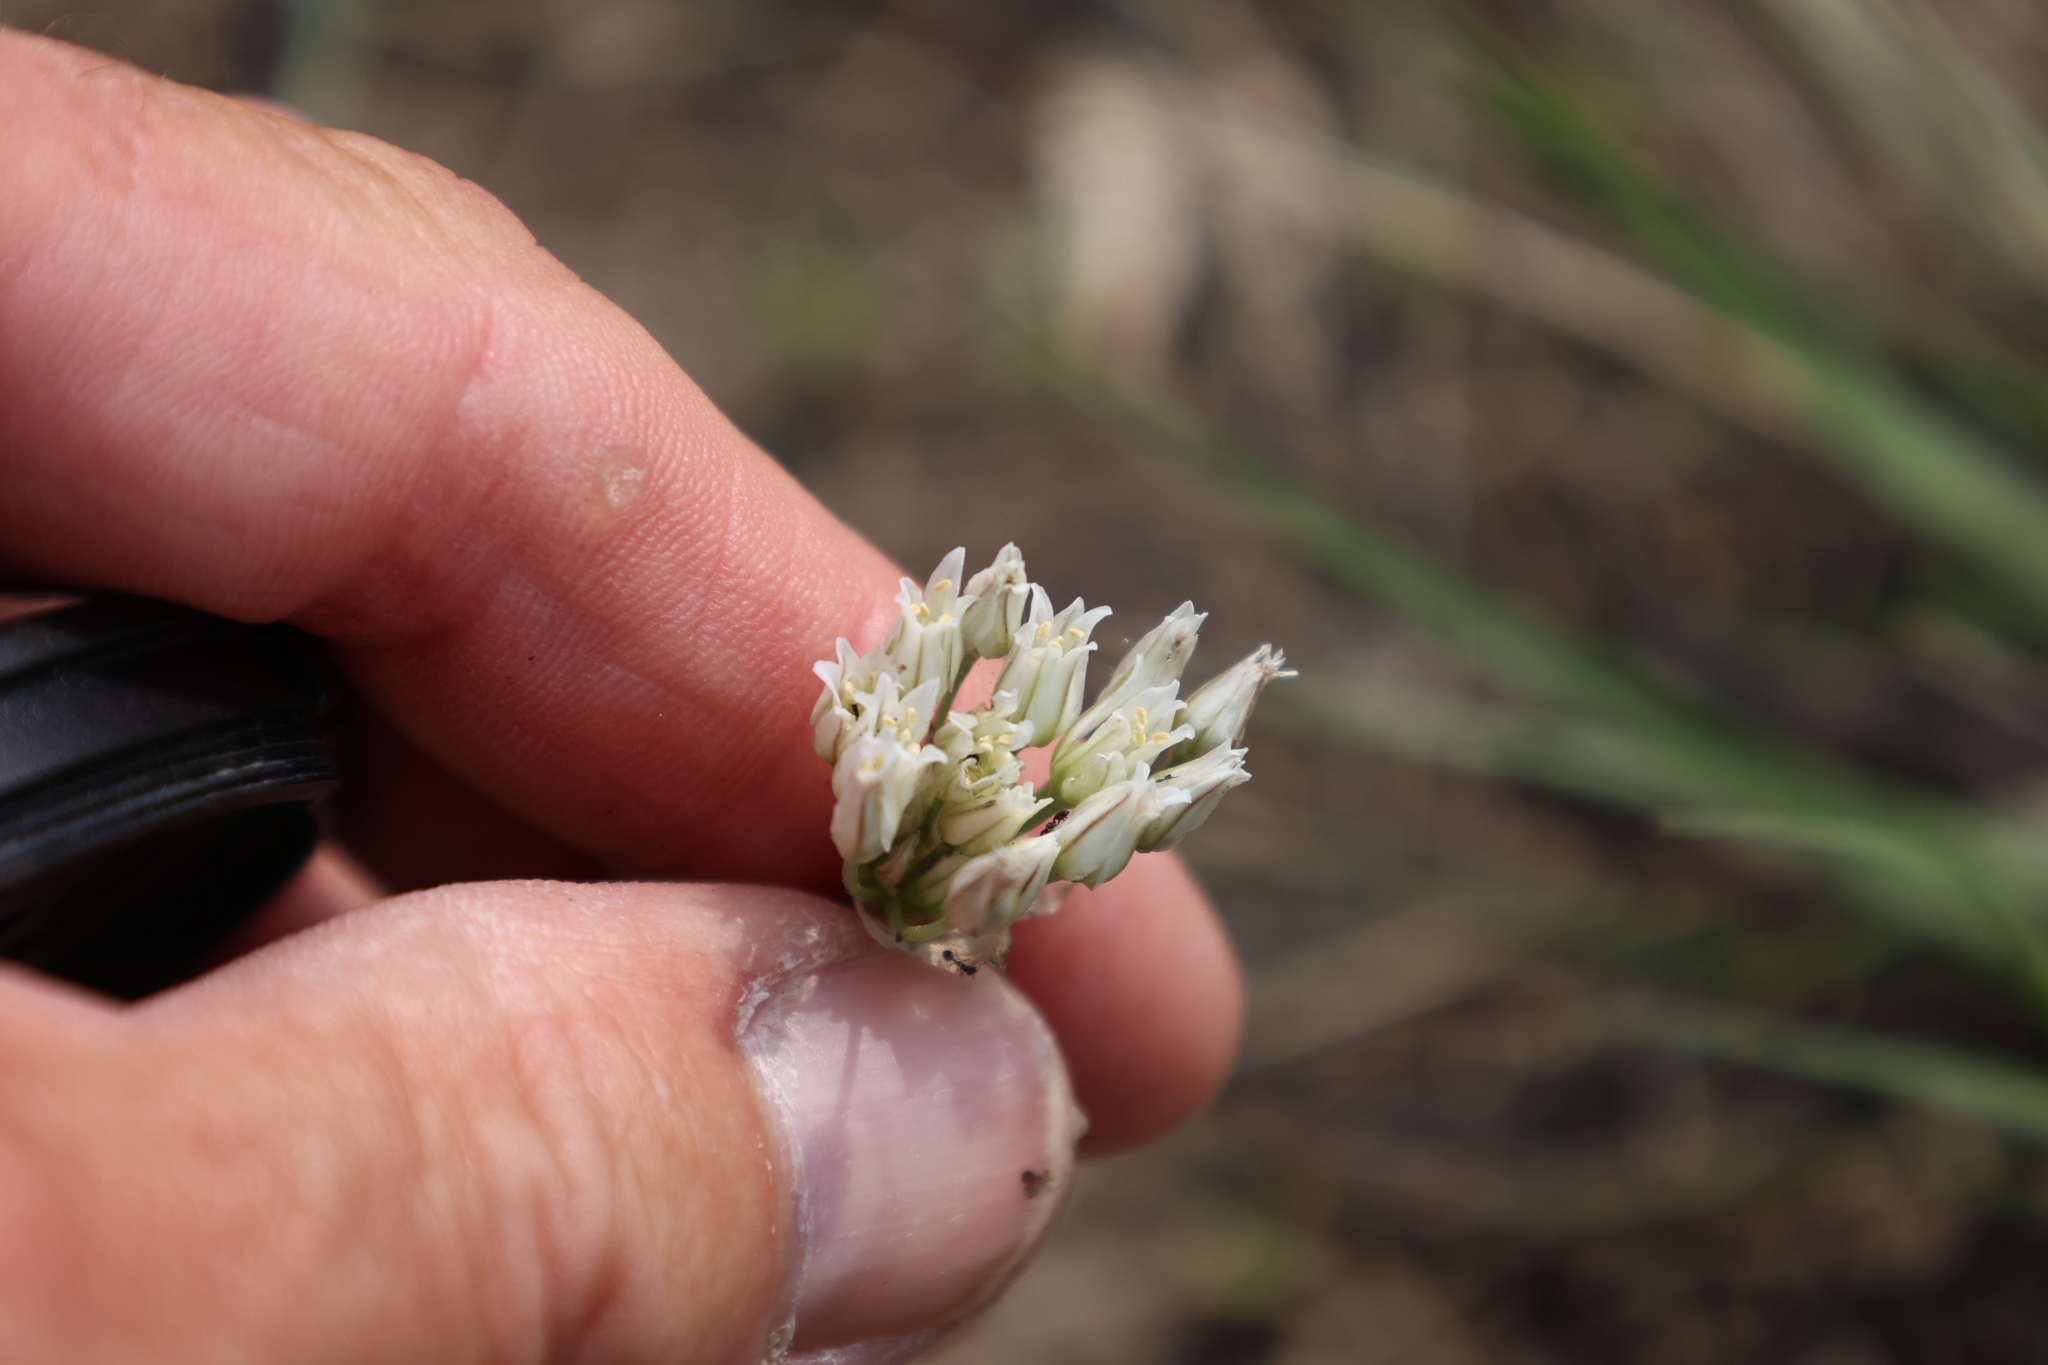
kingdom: Plantae
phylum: Tracheophyta
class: Liliopsida
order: Asparagales
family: Amaryllidaceae
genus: Allium
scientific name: Allium textile
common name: Prairie onion
